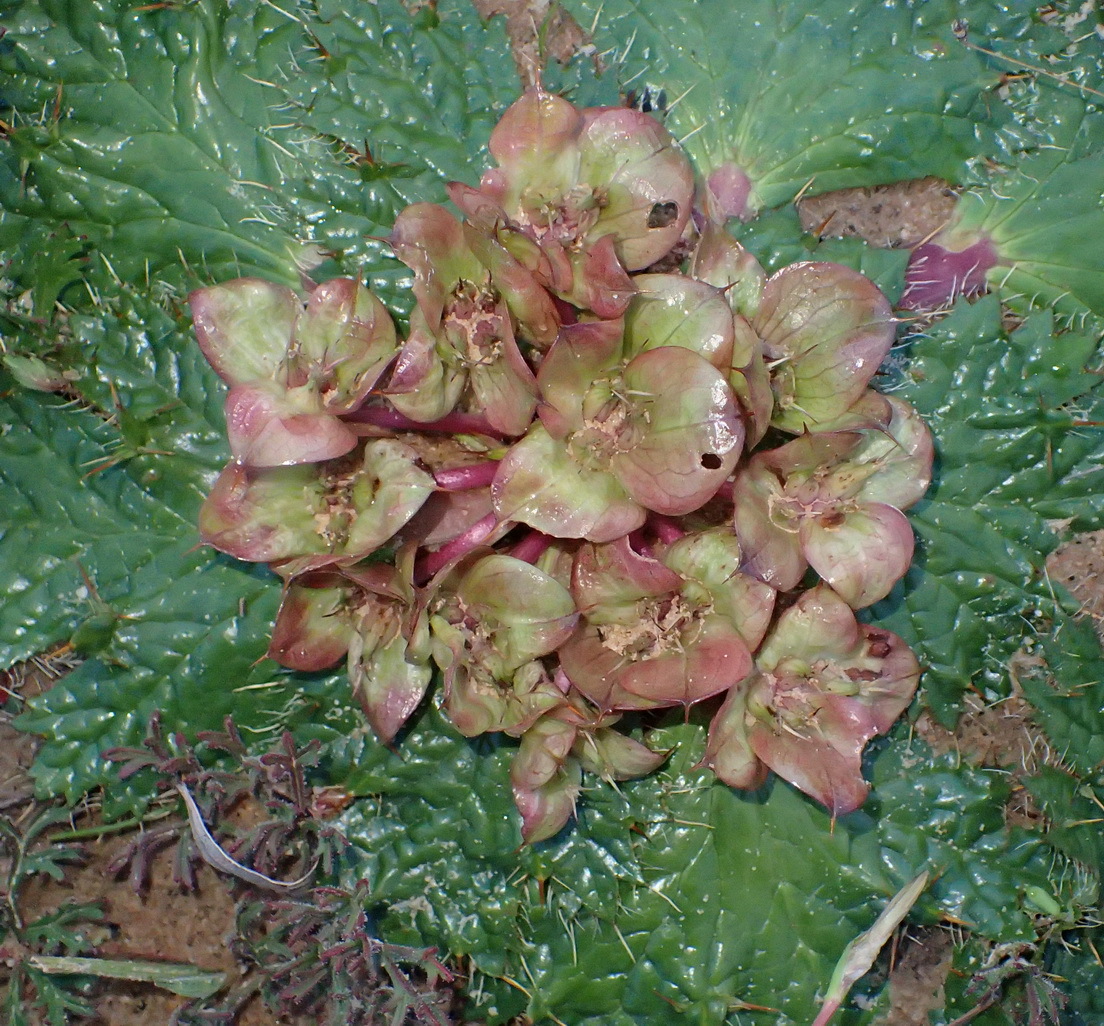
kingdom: Plantae
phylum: Tracheophyta
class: Magnoliopsida
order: Apiales
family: Apiaceae
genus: Arctopus
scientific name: Arctopus monacanthus
